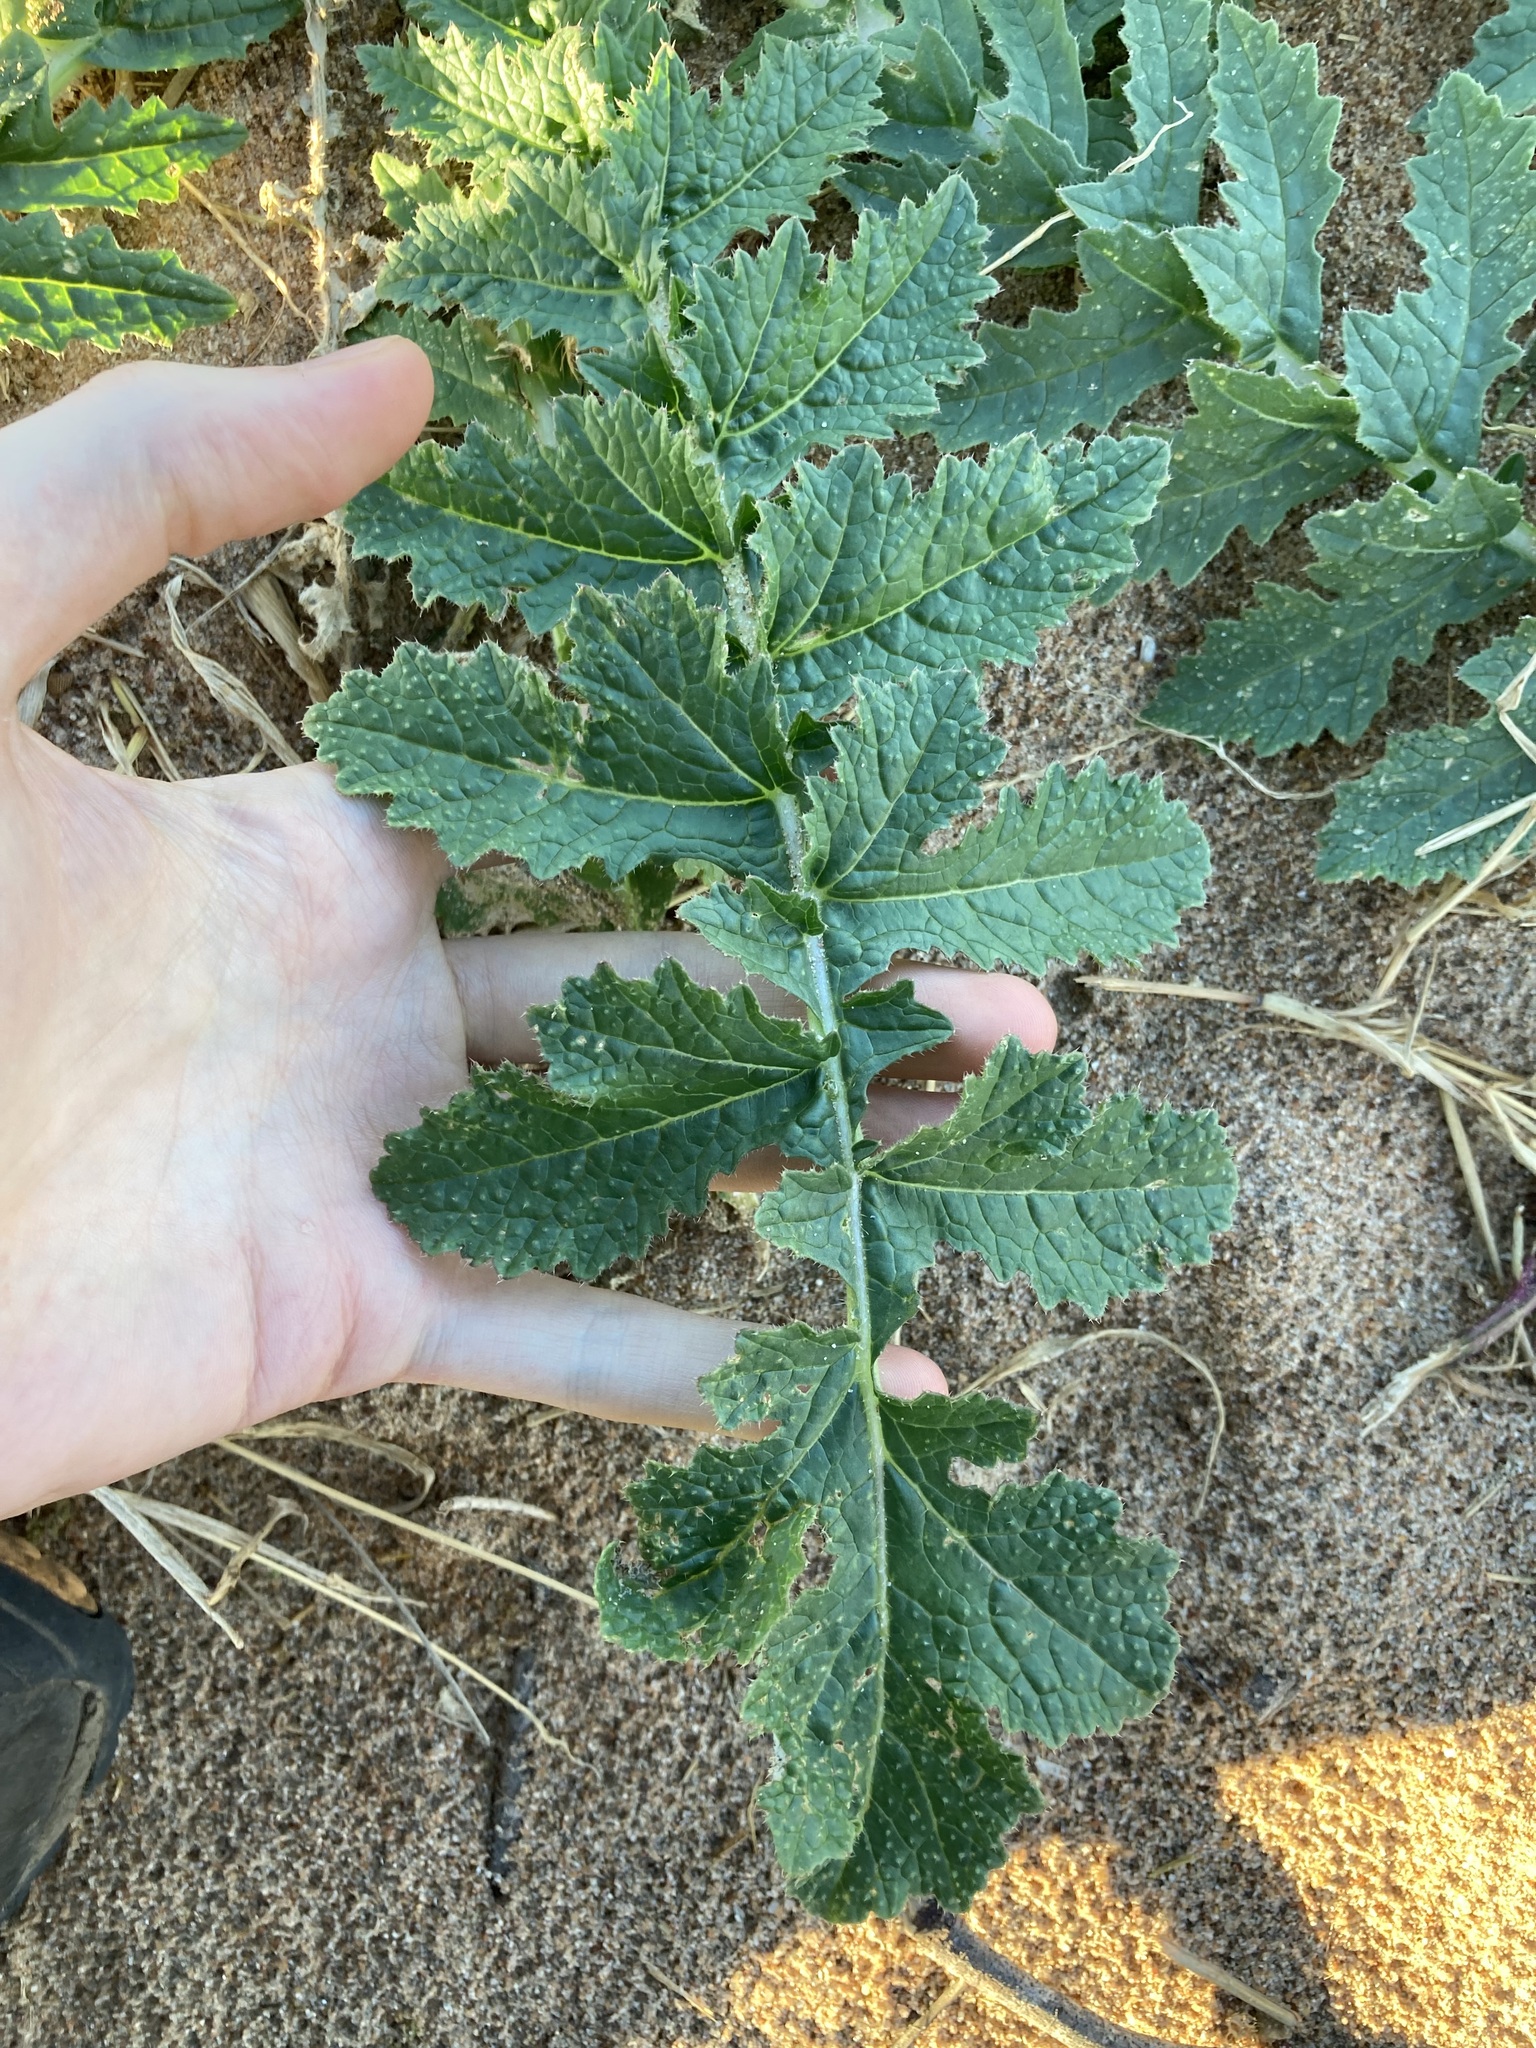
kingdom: Plantae
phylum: Tracheophyta
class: Magnoliopsida
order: Brassicales
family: Brassicaceae
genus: Brassica
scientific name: Brassica tournefortii
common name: Pale cabbage
